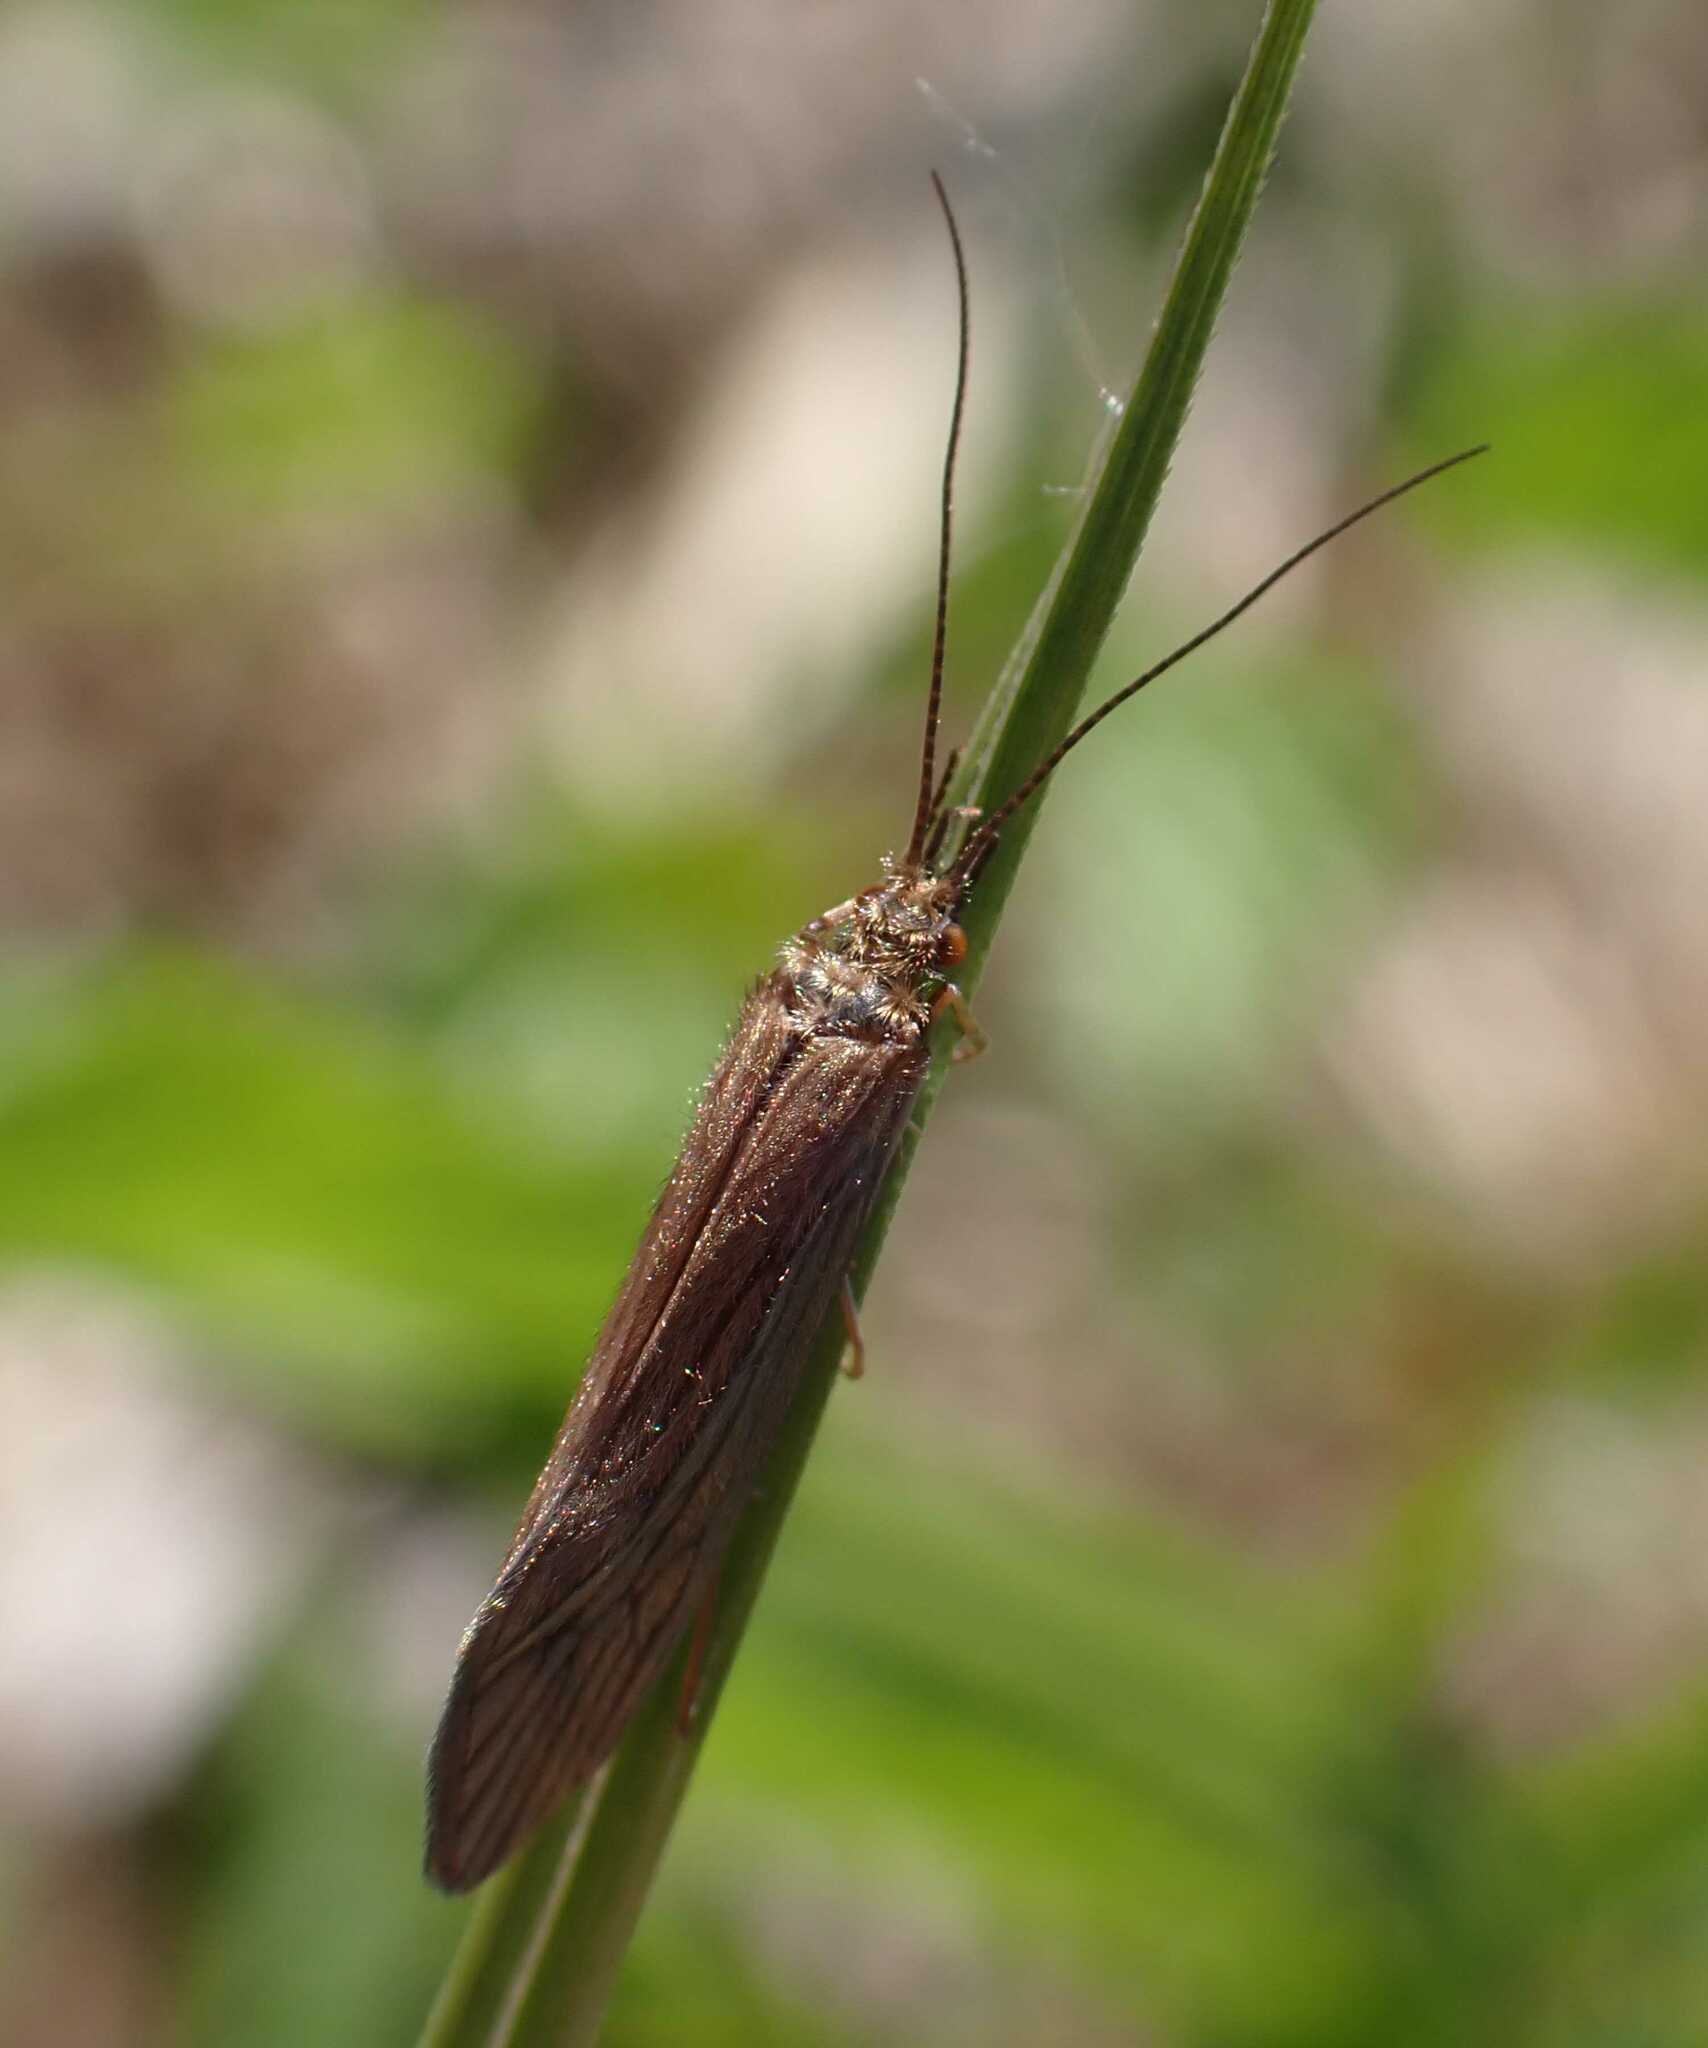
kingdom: Animalia
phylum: Arthropoda
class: Insecta
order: Trichoptera
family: Psychomyiidae
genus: Tinodes
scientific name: Tinodes waeneri
